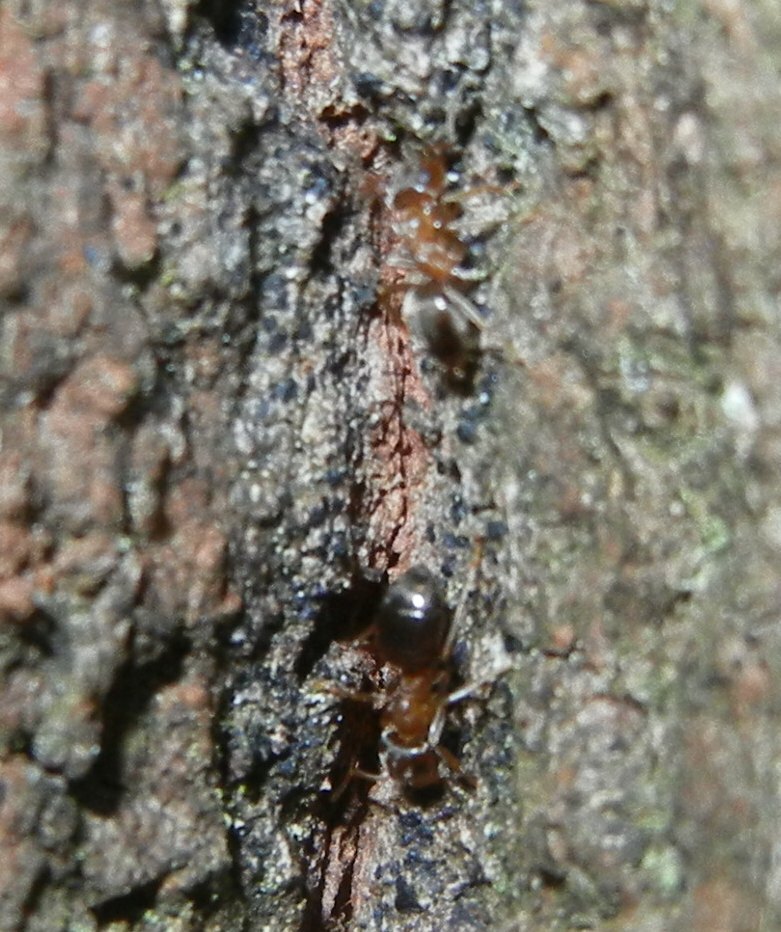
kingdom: Animalia
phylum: Arthropoda
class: Insecta
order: Hymenoptera
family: Formicidae
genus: Lasius
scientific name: Lasius brunneus
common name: Brown ant
